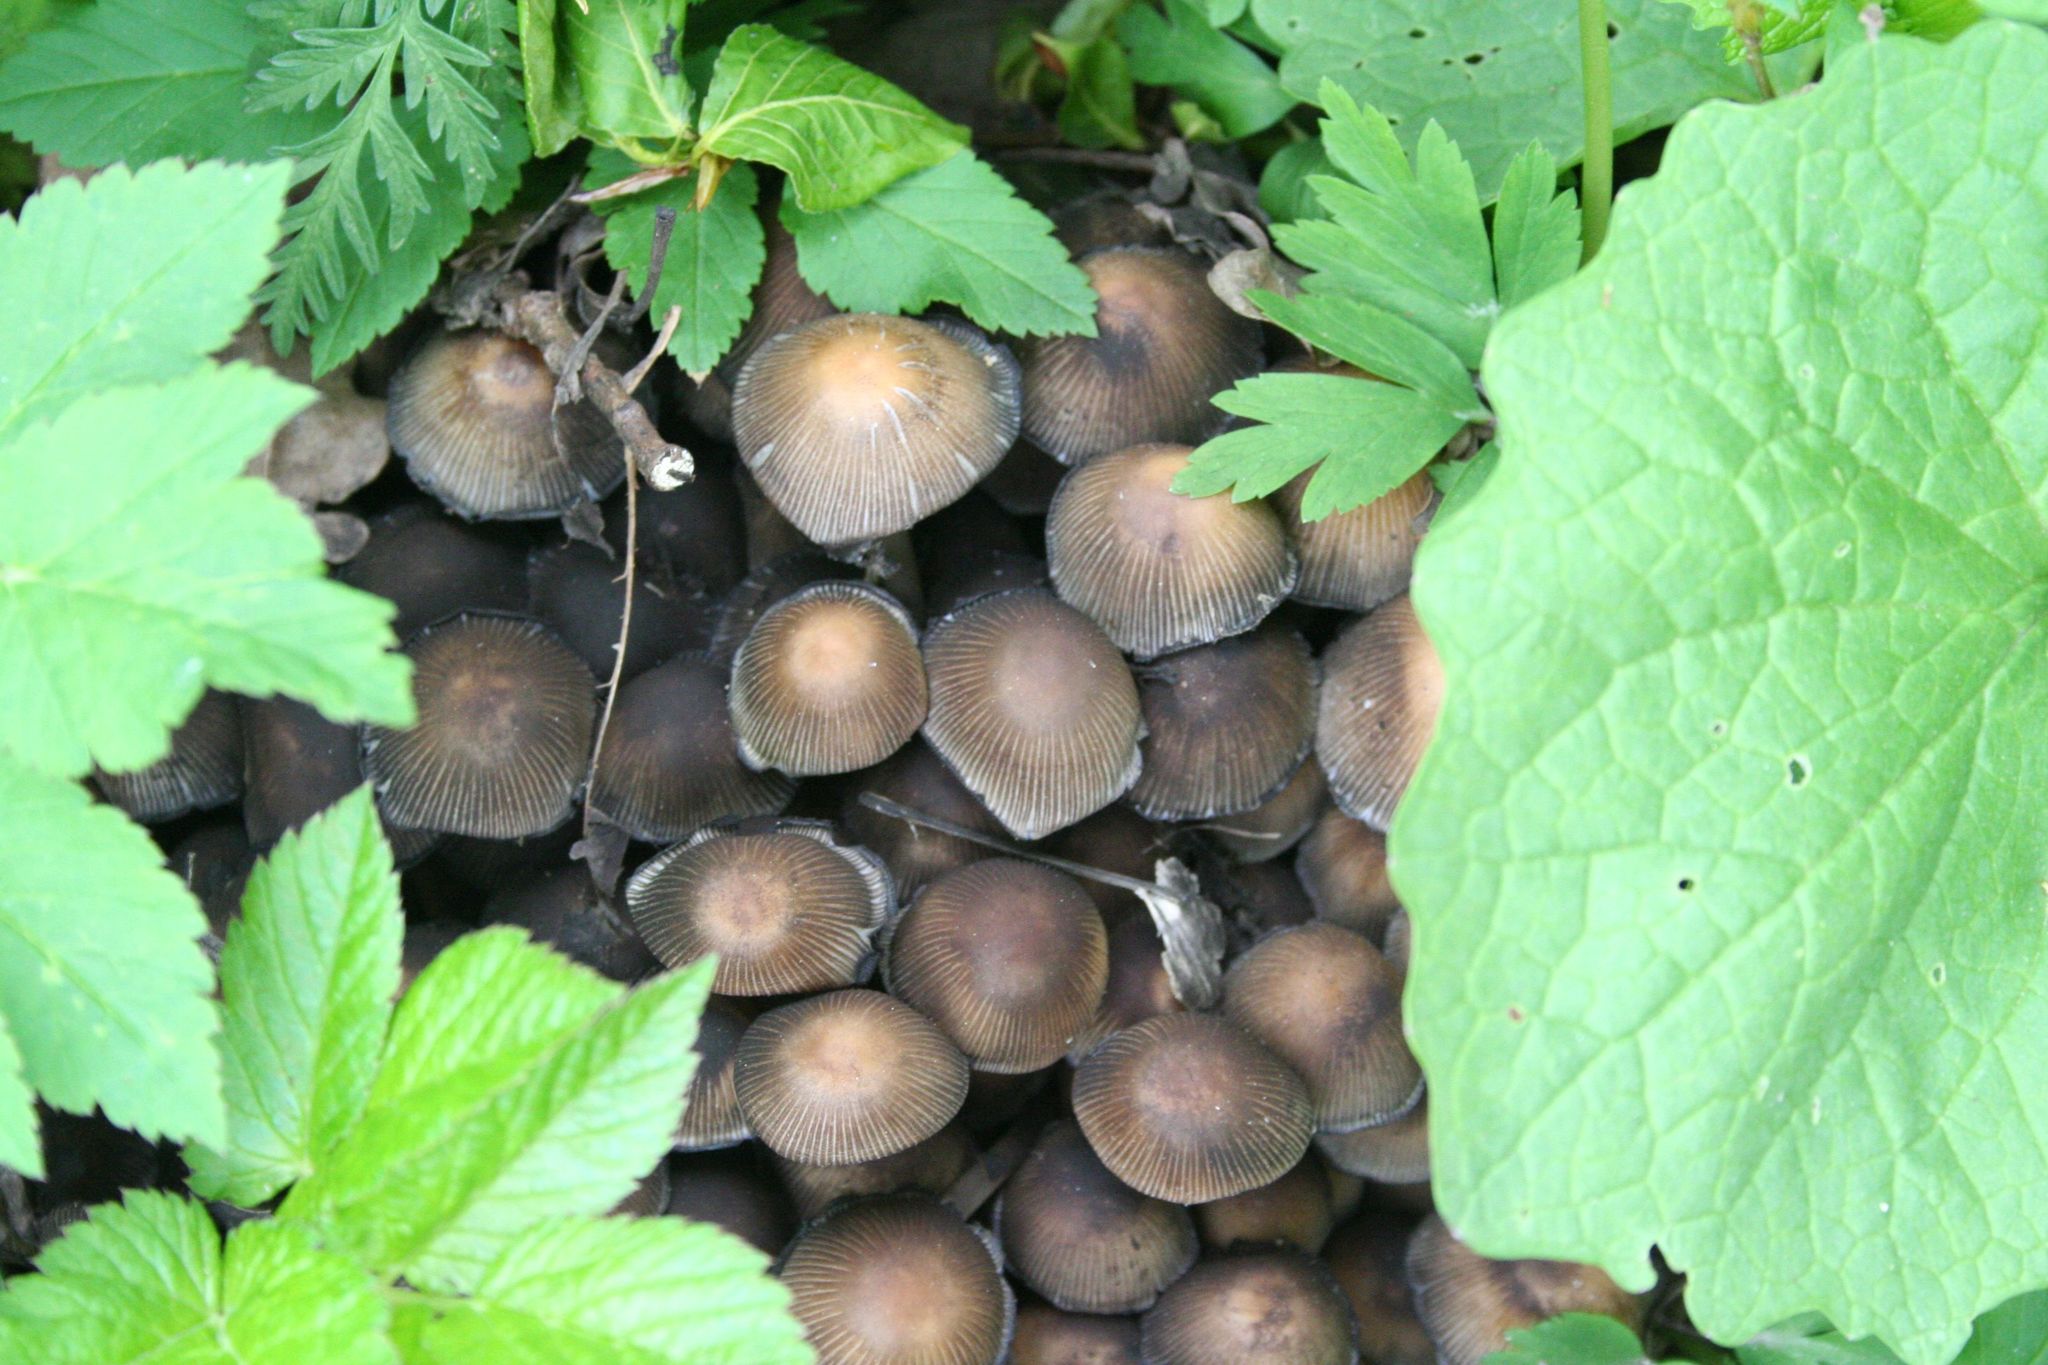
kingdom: Fungi
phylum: Basidiomycota
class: Agaricomycetes
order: Agaricales
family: Psathyrellaceae
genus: Coprinellus
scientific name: Coprinellus micaceus
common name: Glistening ink-cap
